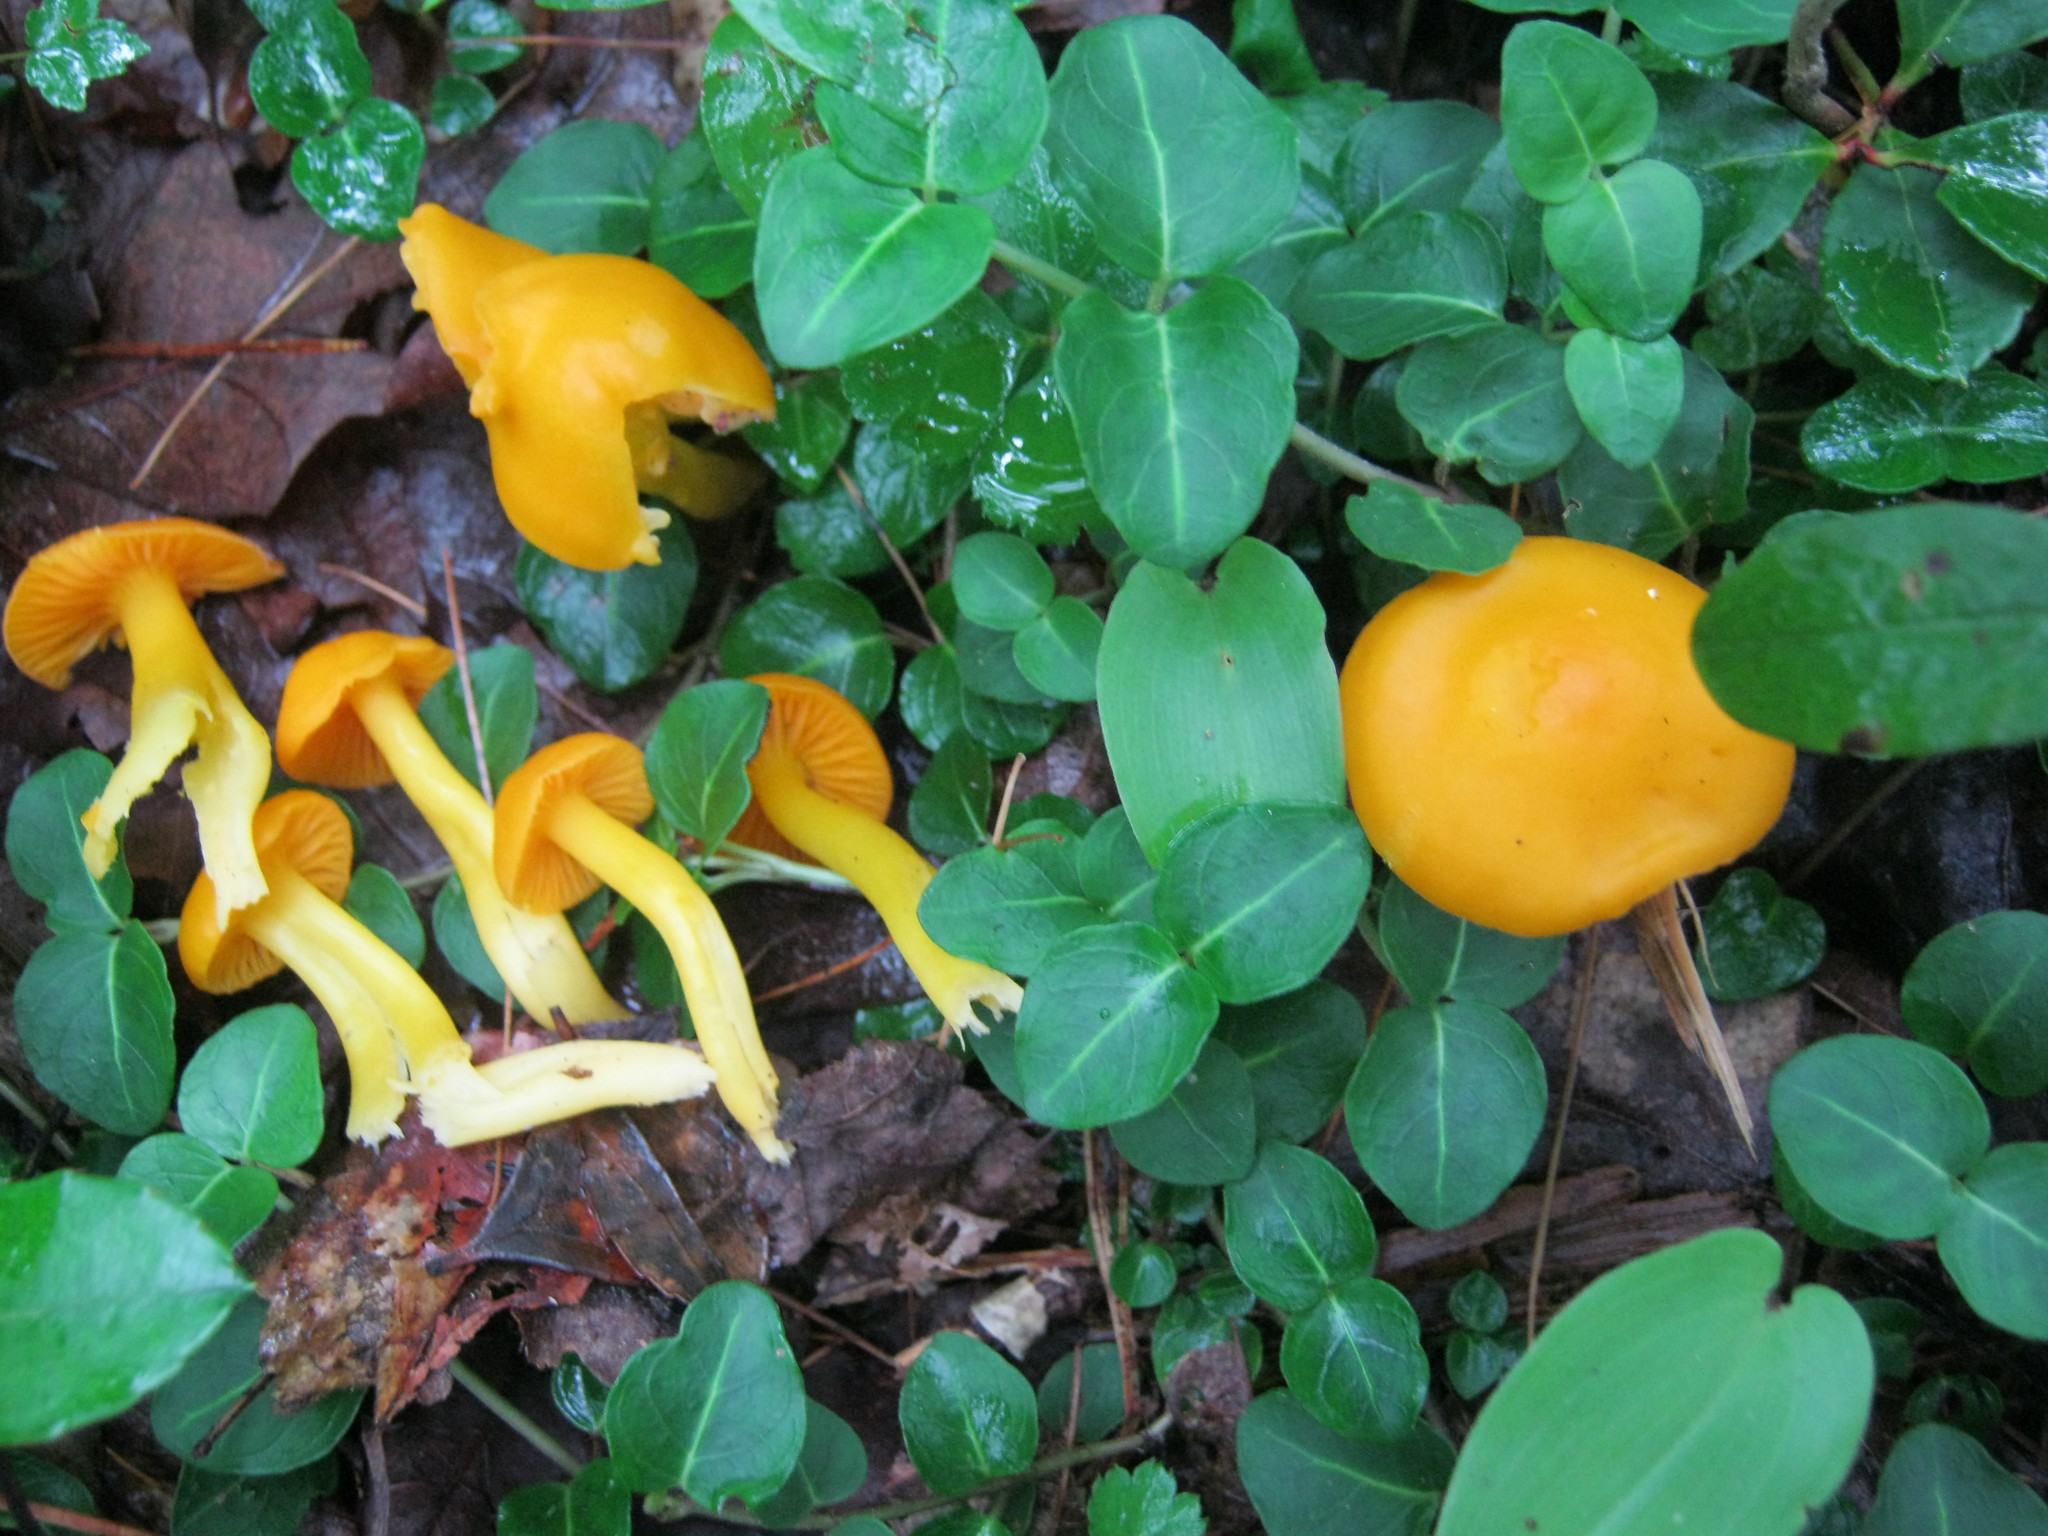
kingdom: Fungi
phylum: Basidiomycota
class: Agaricomycetes
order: Agaricales
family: Hygrophoraceae
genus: Humidicutis
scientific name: Humidicutis marginata
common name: Orange gilled waxcap
